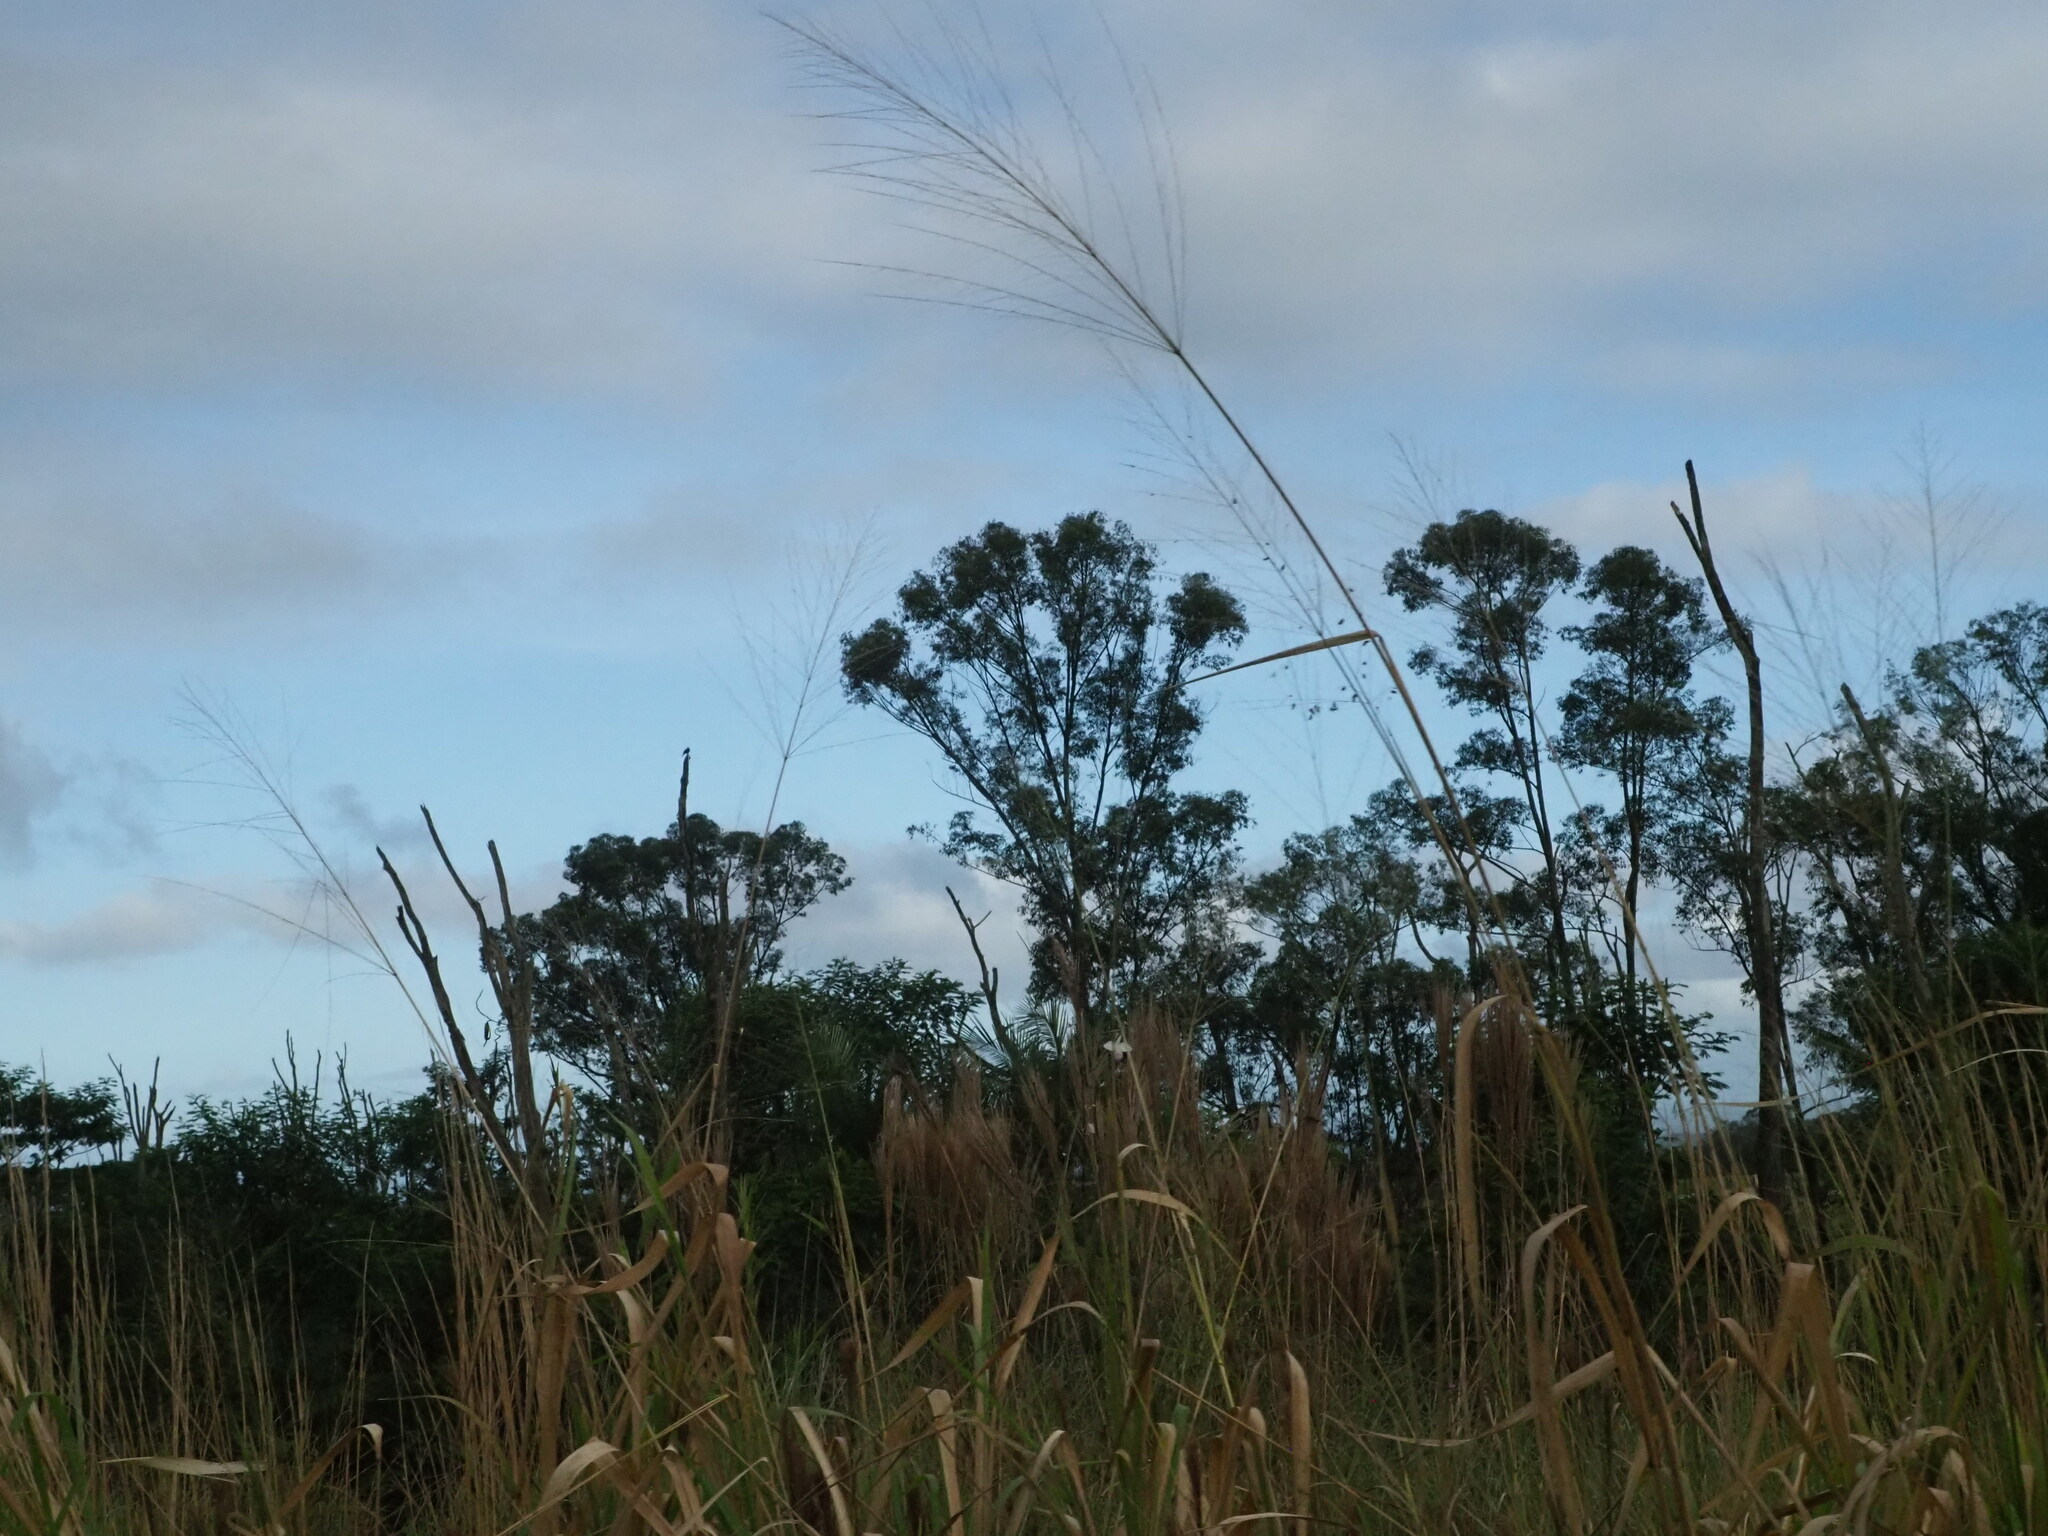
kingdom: Plantae
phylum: Tracheophyta
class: Liliopsida
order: Poales
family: Poaceae
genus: Megathyrsus
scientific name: Megathyrsus maximus
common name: Guineagrass
